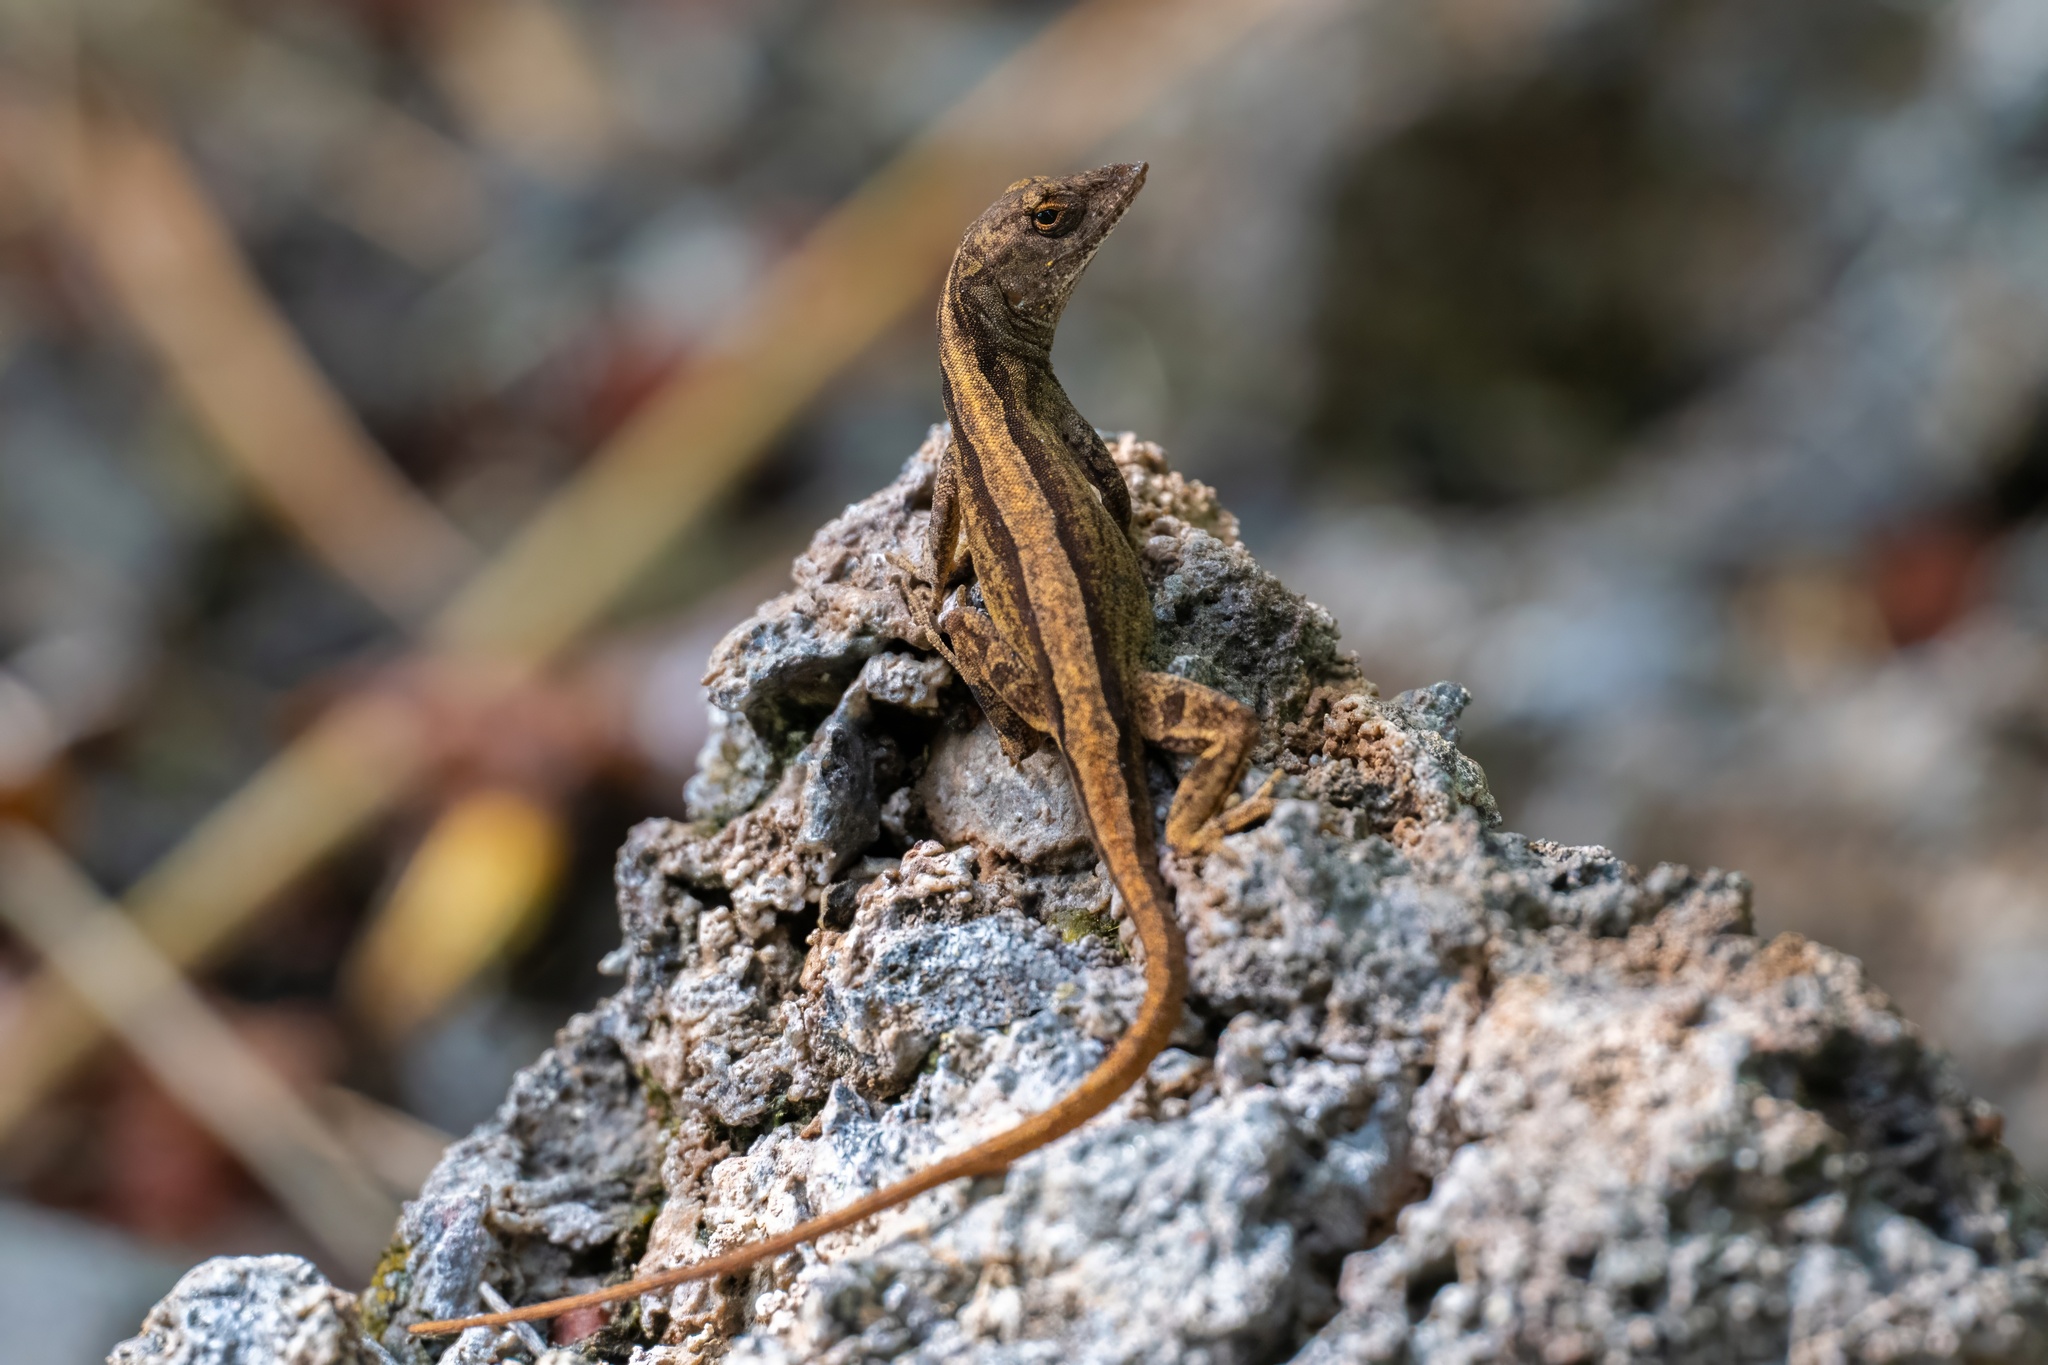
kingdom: Animalia
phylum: Chordata
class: Squamata
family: Dactyloidae
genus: Anolis
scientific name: Anolis sagrei
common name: Brown anole
